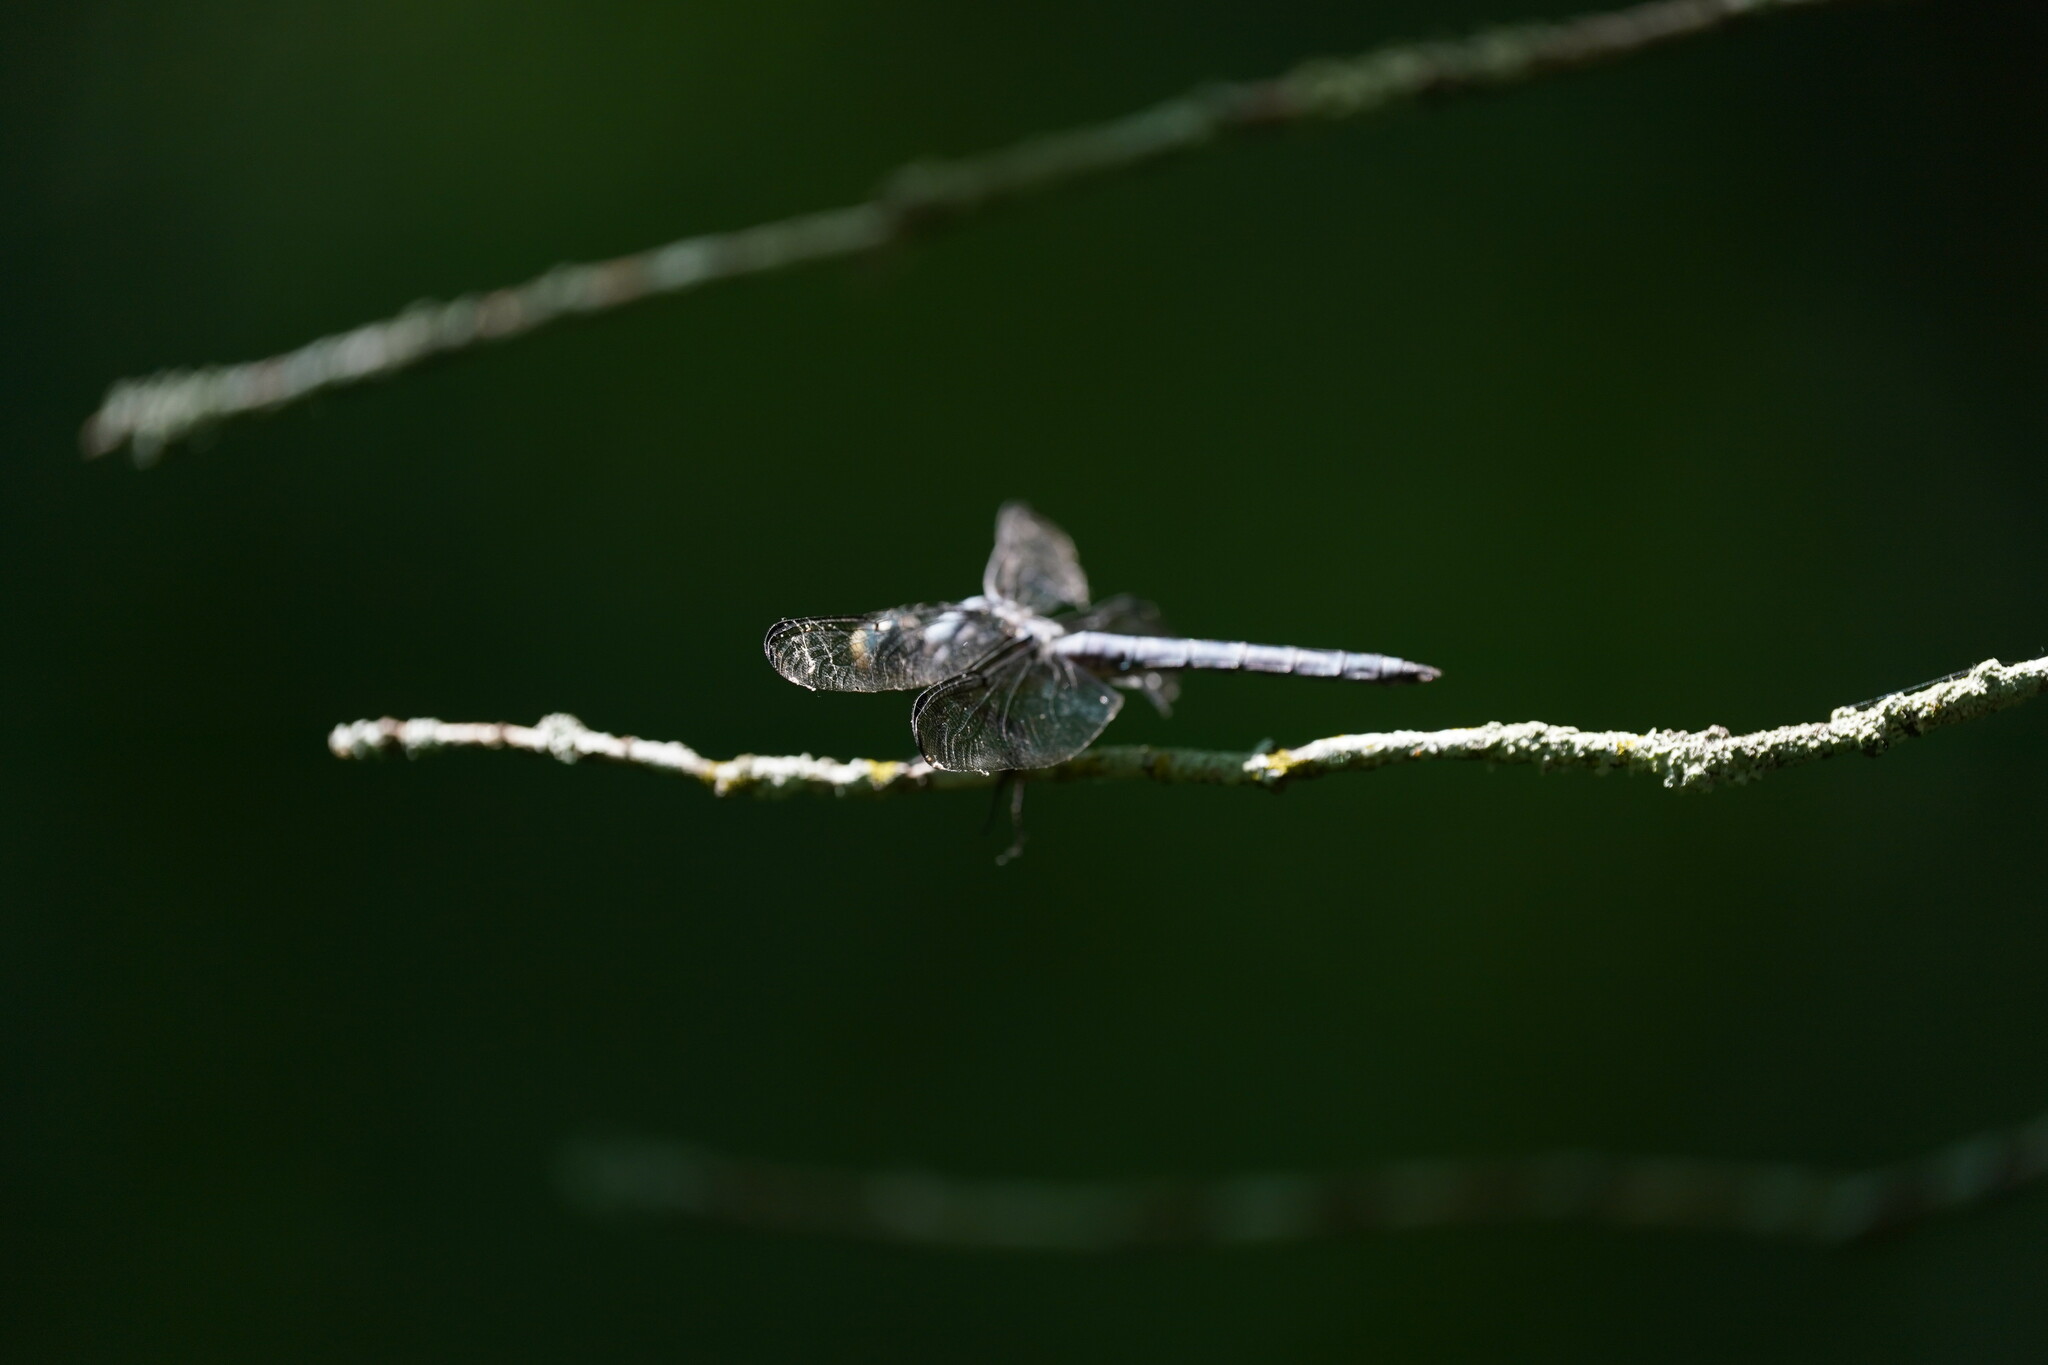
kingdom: Animalia
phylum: Arthropoda
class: Insecta
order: Odonata
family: Libellulidae
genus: Libellula
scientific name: Libellula vibrans
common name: Great blue skimmer
